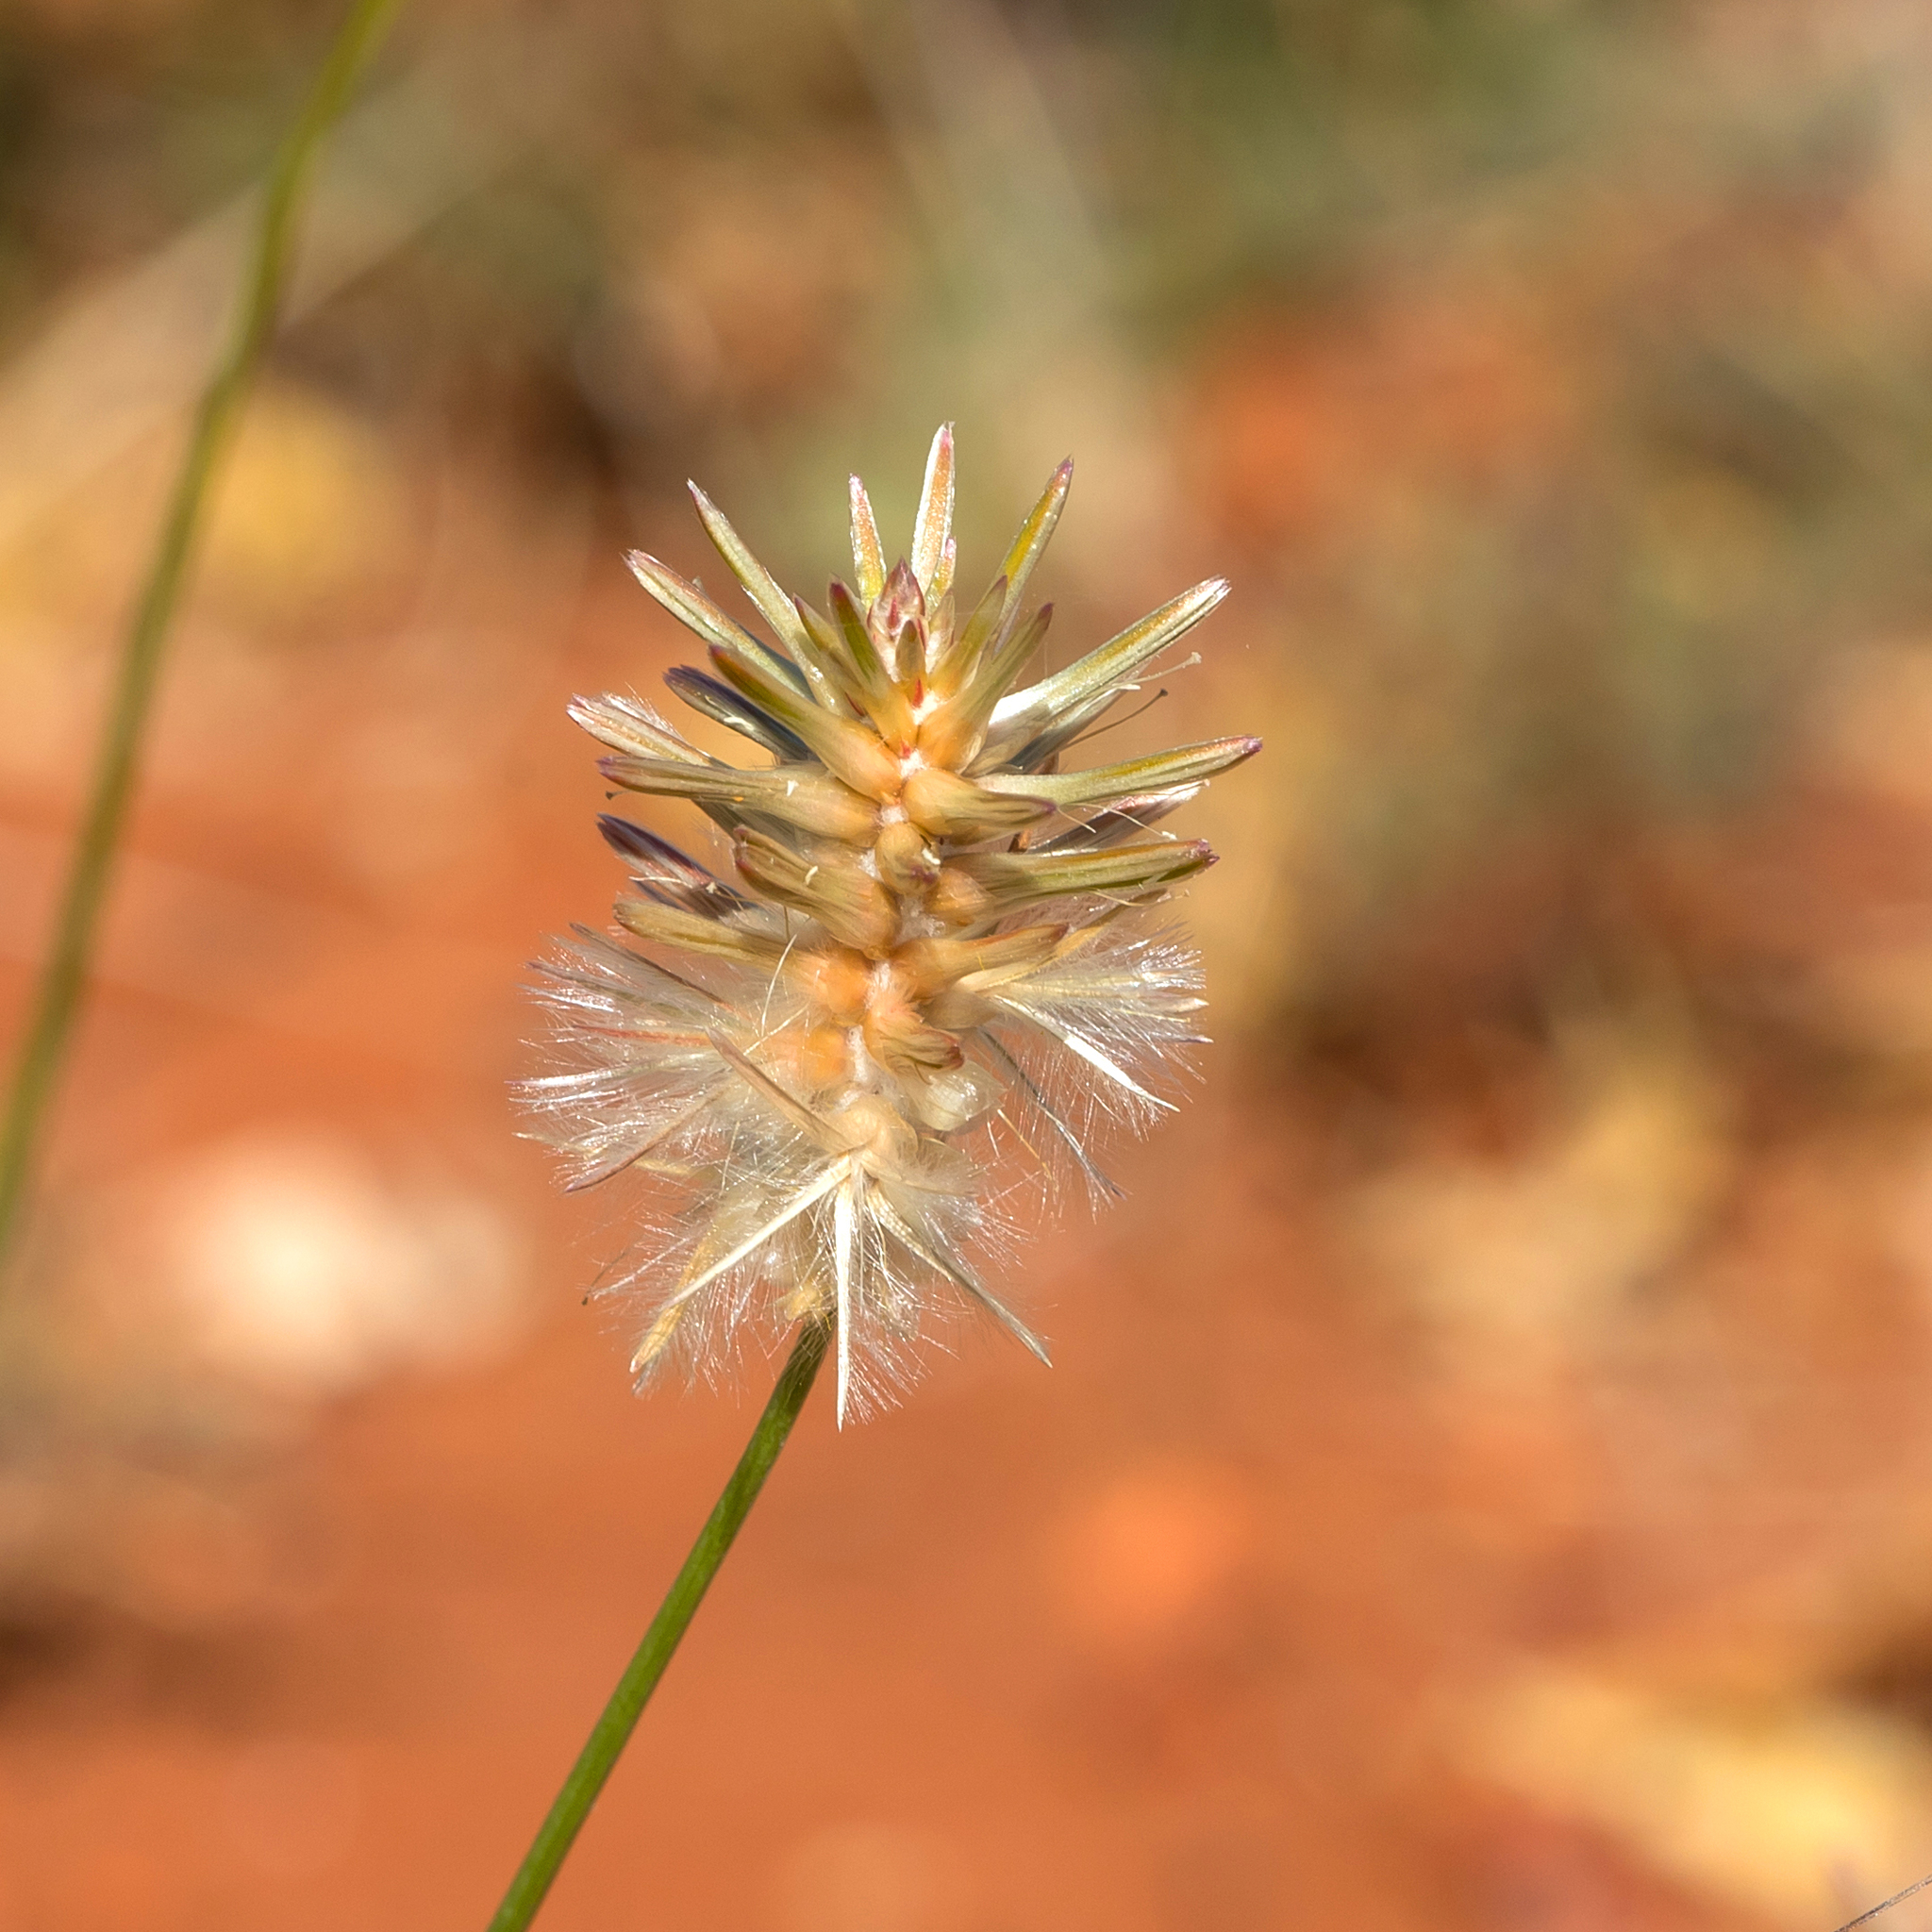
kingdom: Plantae
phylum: Tracheophyta
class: Magnoliopsida
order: Caryophyllales
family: Amaranthaceae
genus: Ptilotus
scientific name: Ptilotus fusiformis
